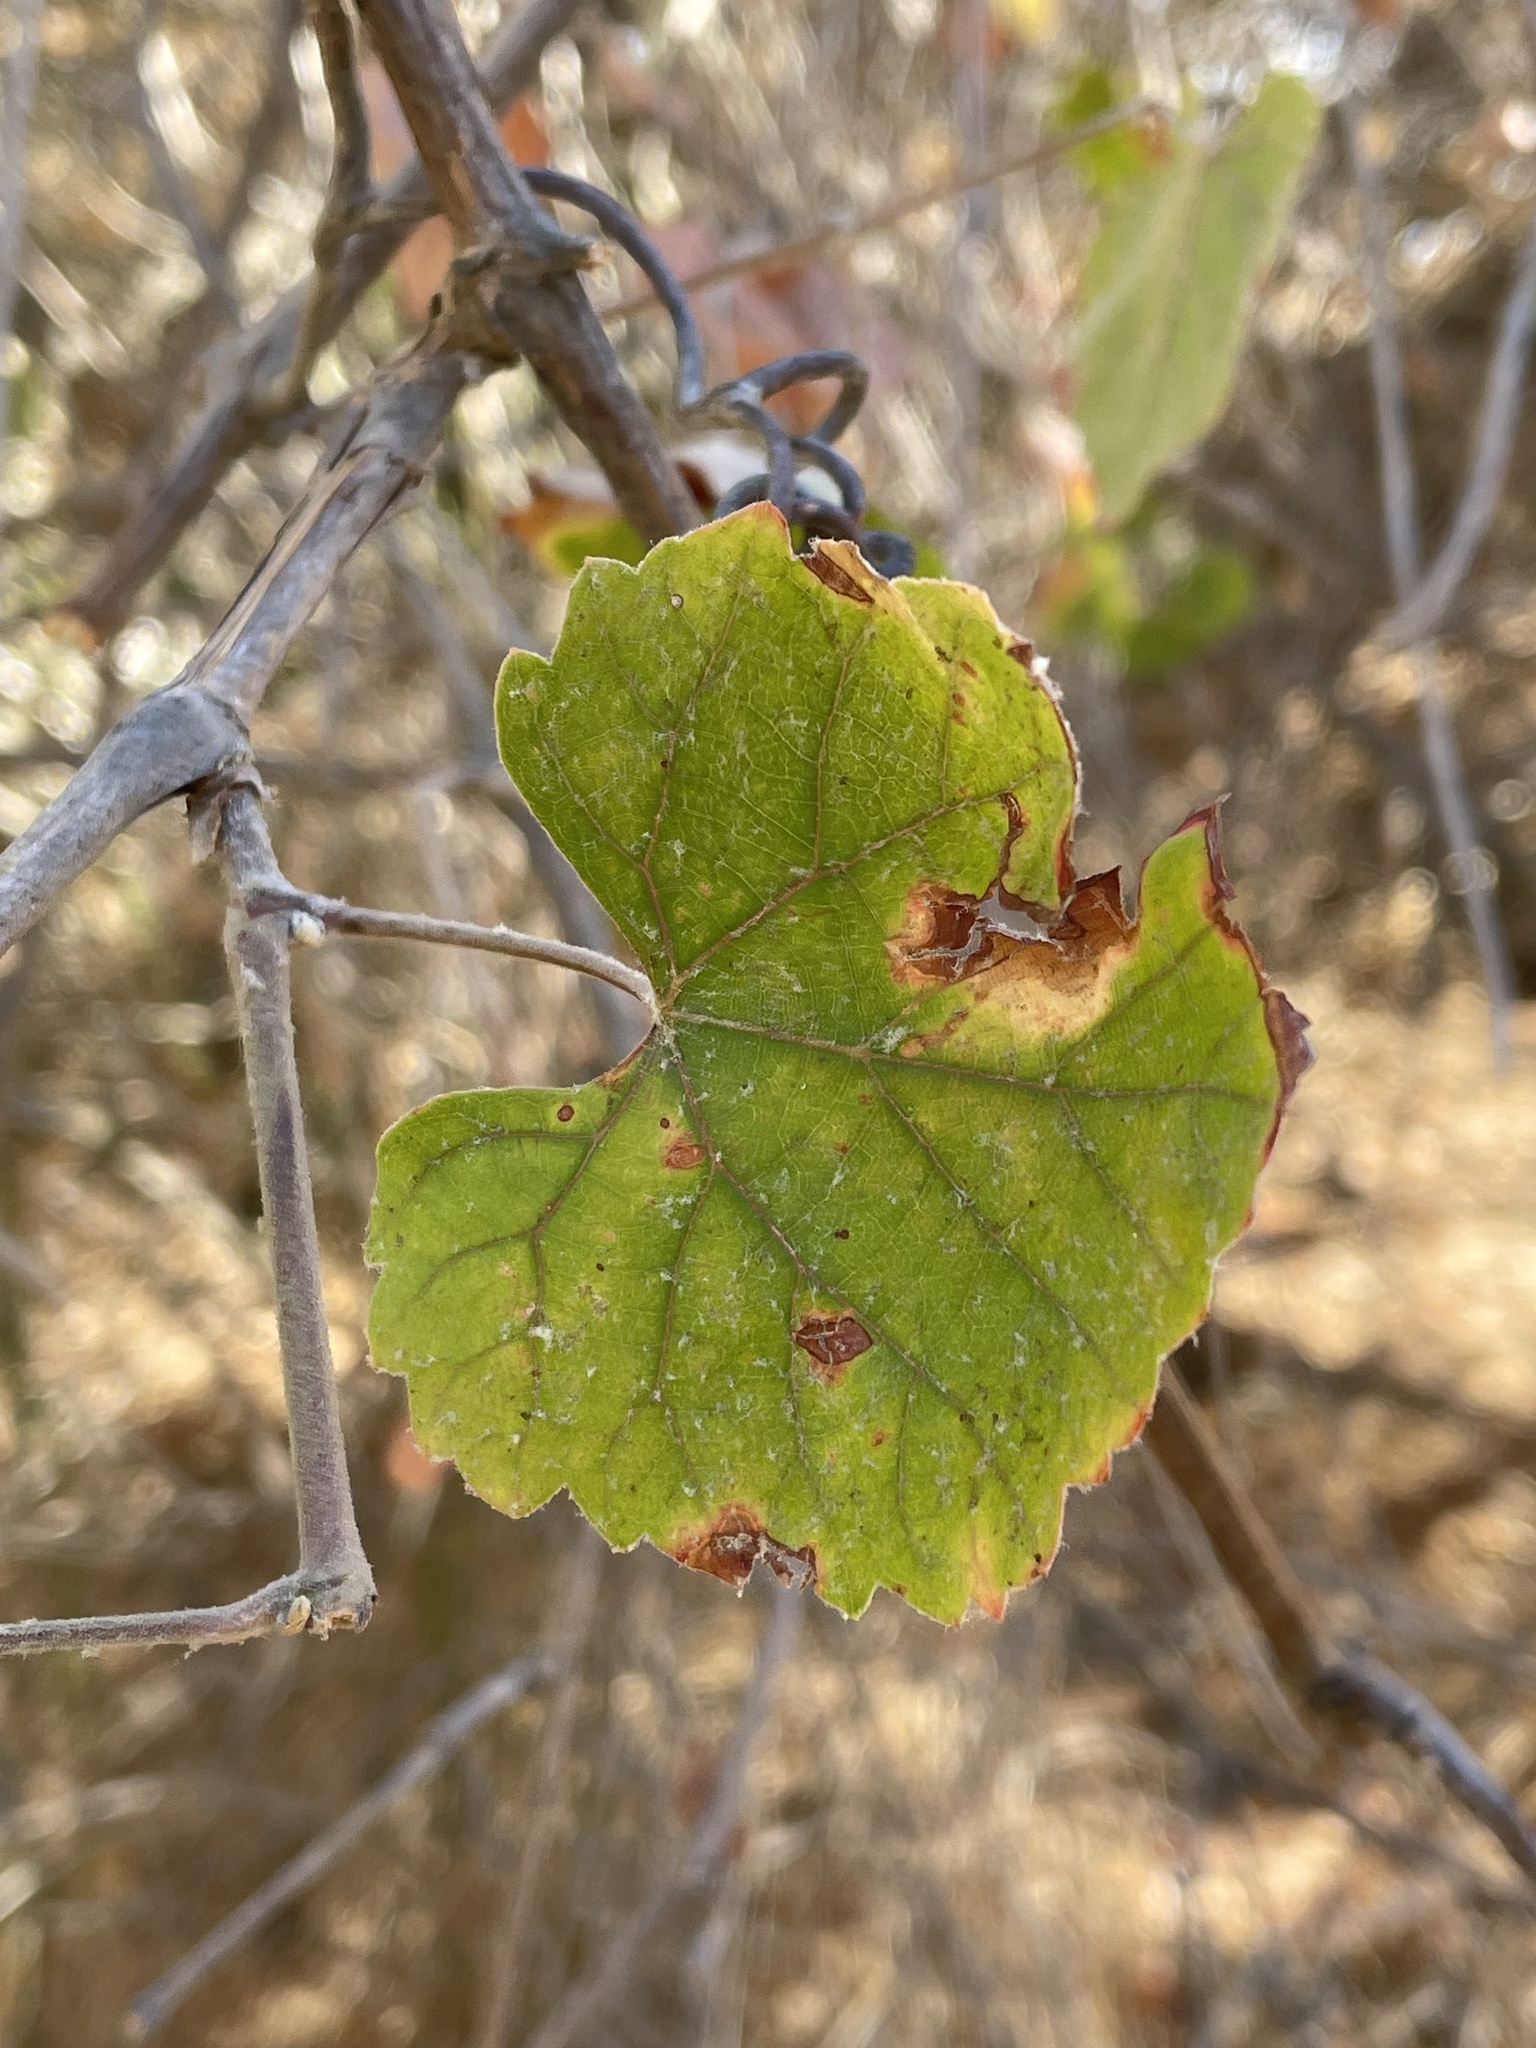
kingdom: Plantae
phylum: Tracheophyta
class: Magnoliopsida
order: Vitales
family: Vitaceae
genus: Vitis
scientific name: Vitis californica
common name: California wild grape
